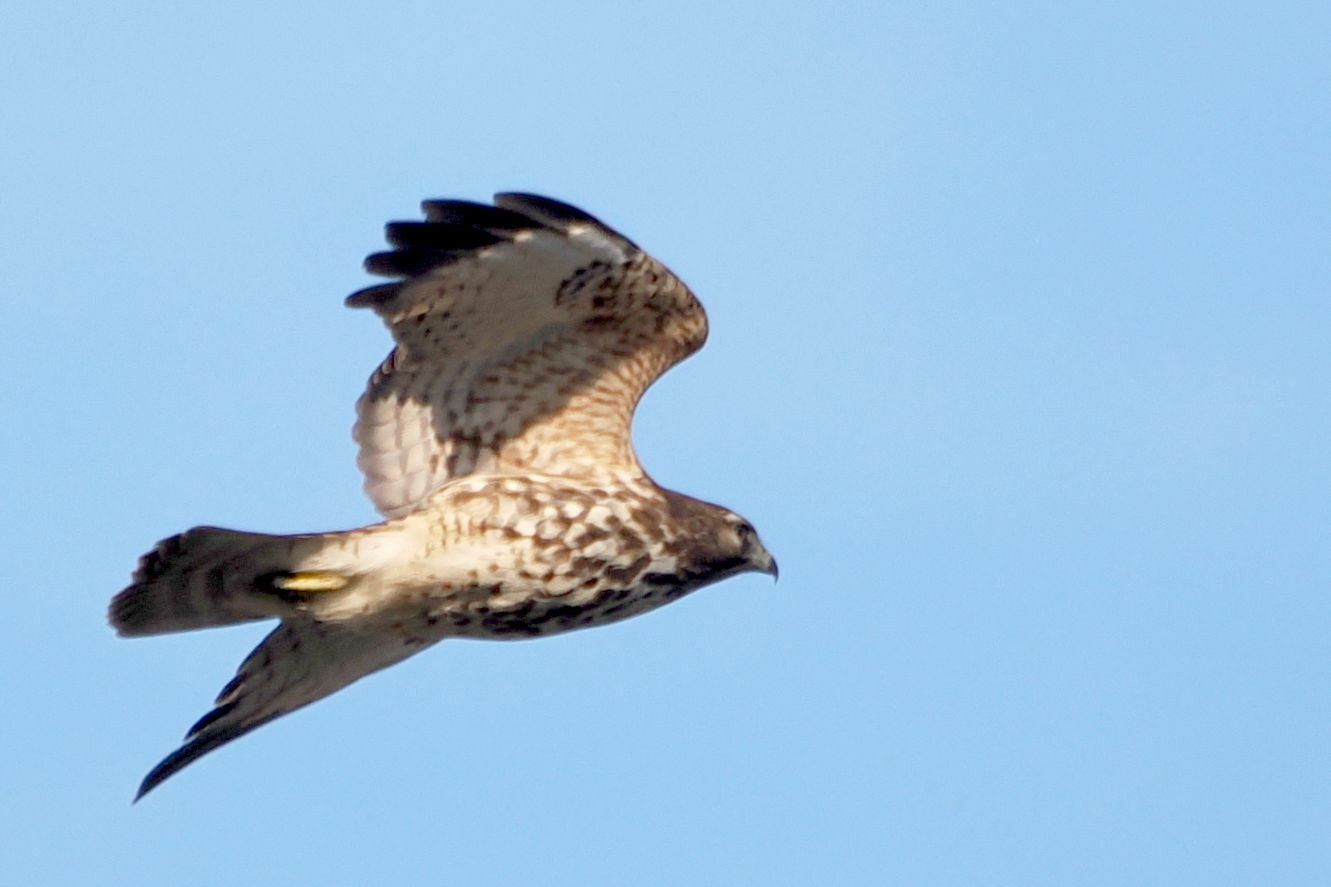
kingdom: Animalia
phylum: Chordata
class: Aves
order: Accipitriformes
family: Accipitridae
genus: Buteo
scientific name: Buteo lineatus
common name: Red-shouldered hawk
